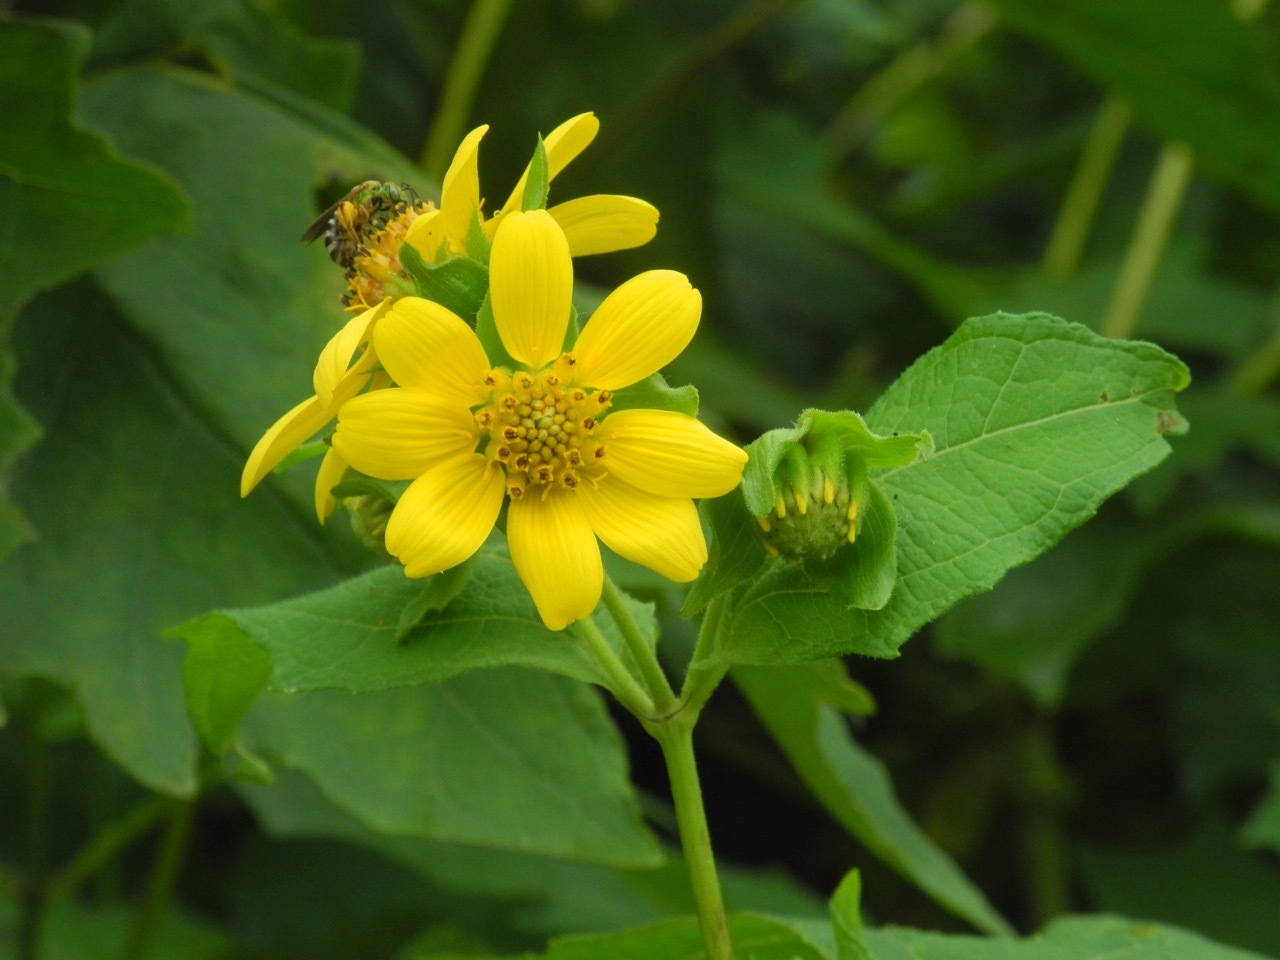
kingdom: Plantae
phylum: Tracheophyta
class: Magnoliopsida
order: Asterales
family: Asteraceae
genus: Smallanthus
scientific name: Smallanthus uvedalia
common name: Bear's-foot
